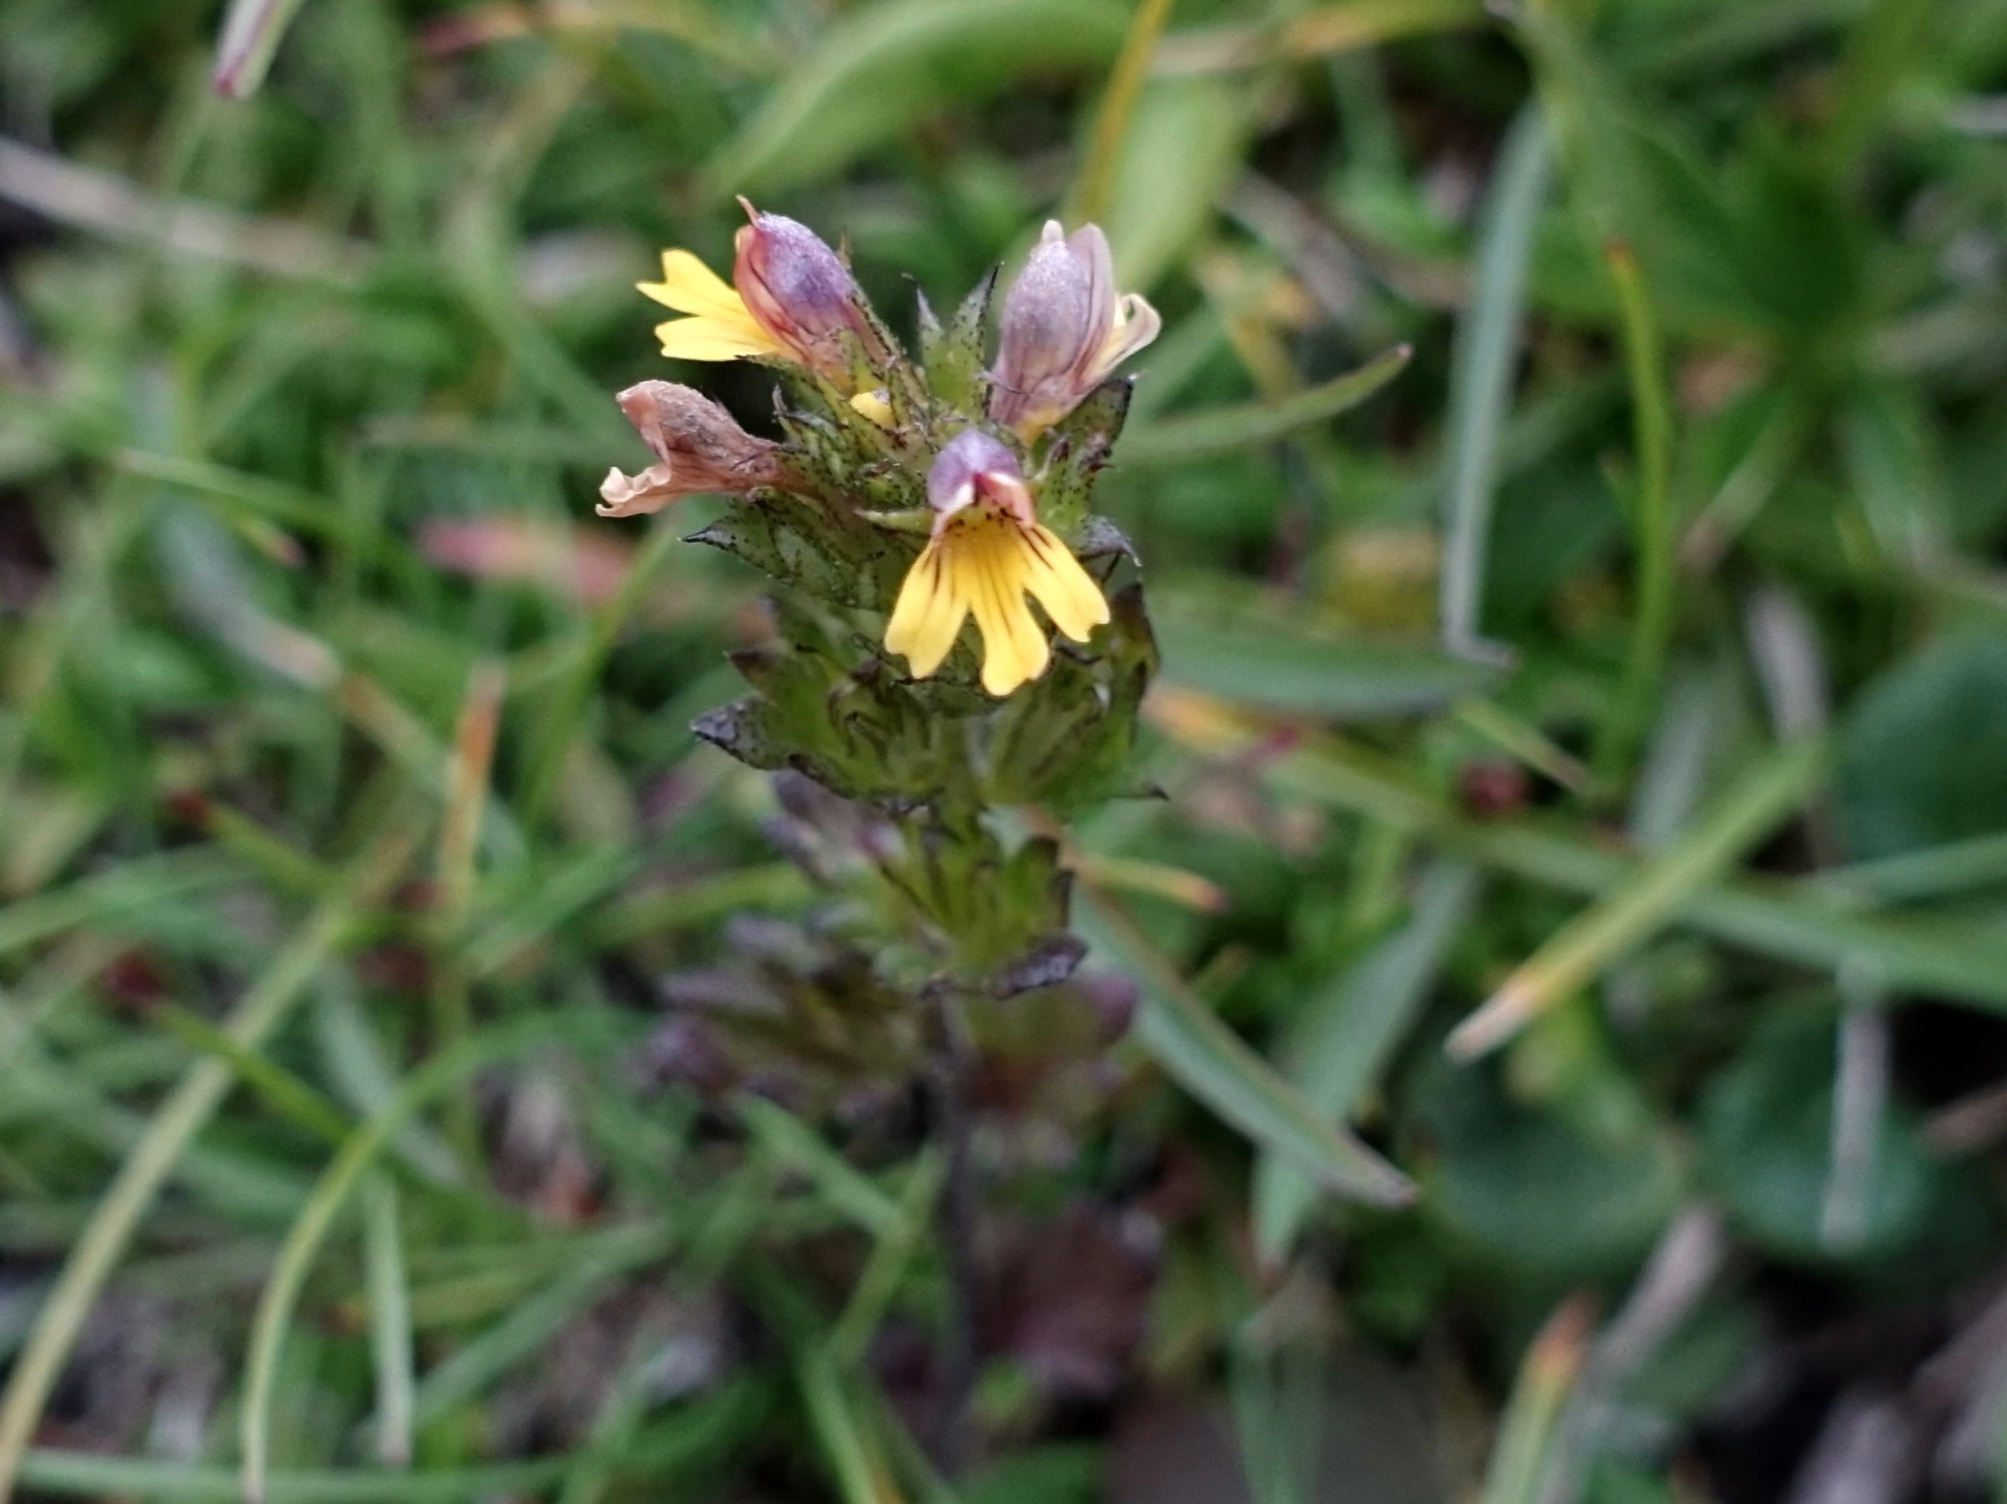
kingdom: Plantae
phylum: Tracheophyta
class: Magnoliopsida
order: Lamiales
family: Orobanchaceae
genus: Euphrasia
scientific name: Euphrasia minima
